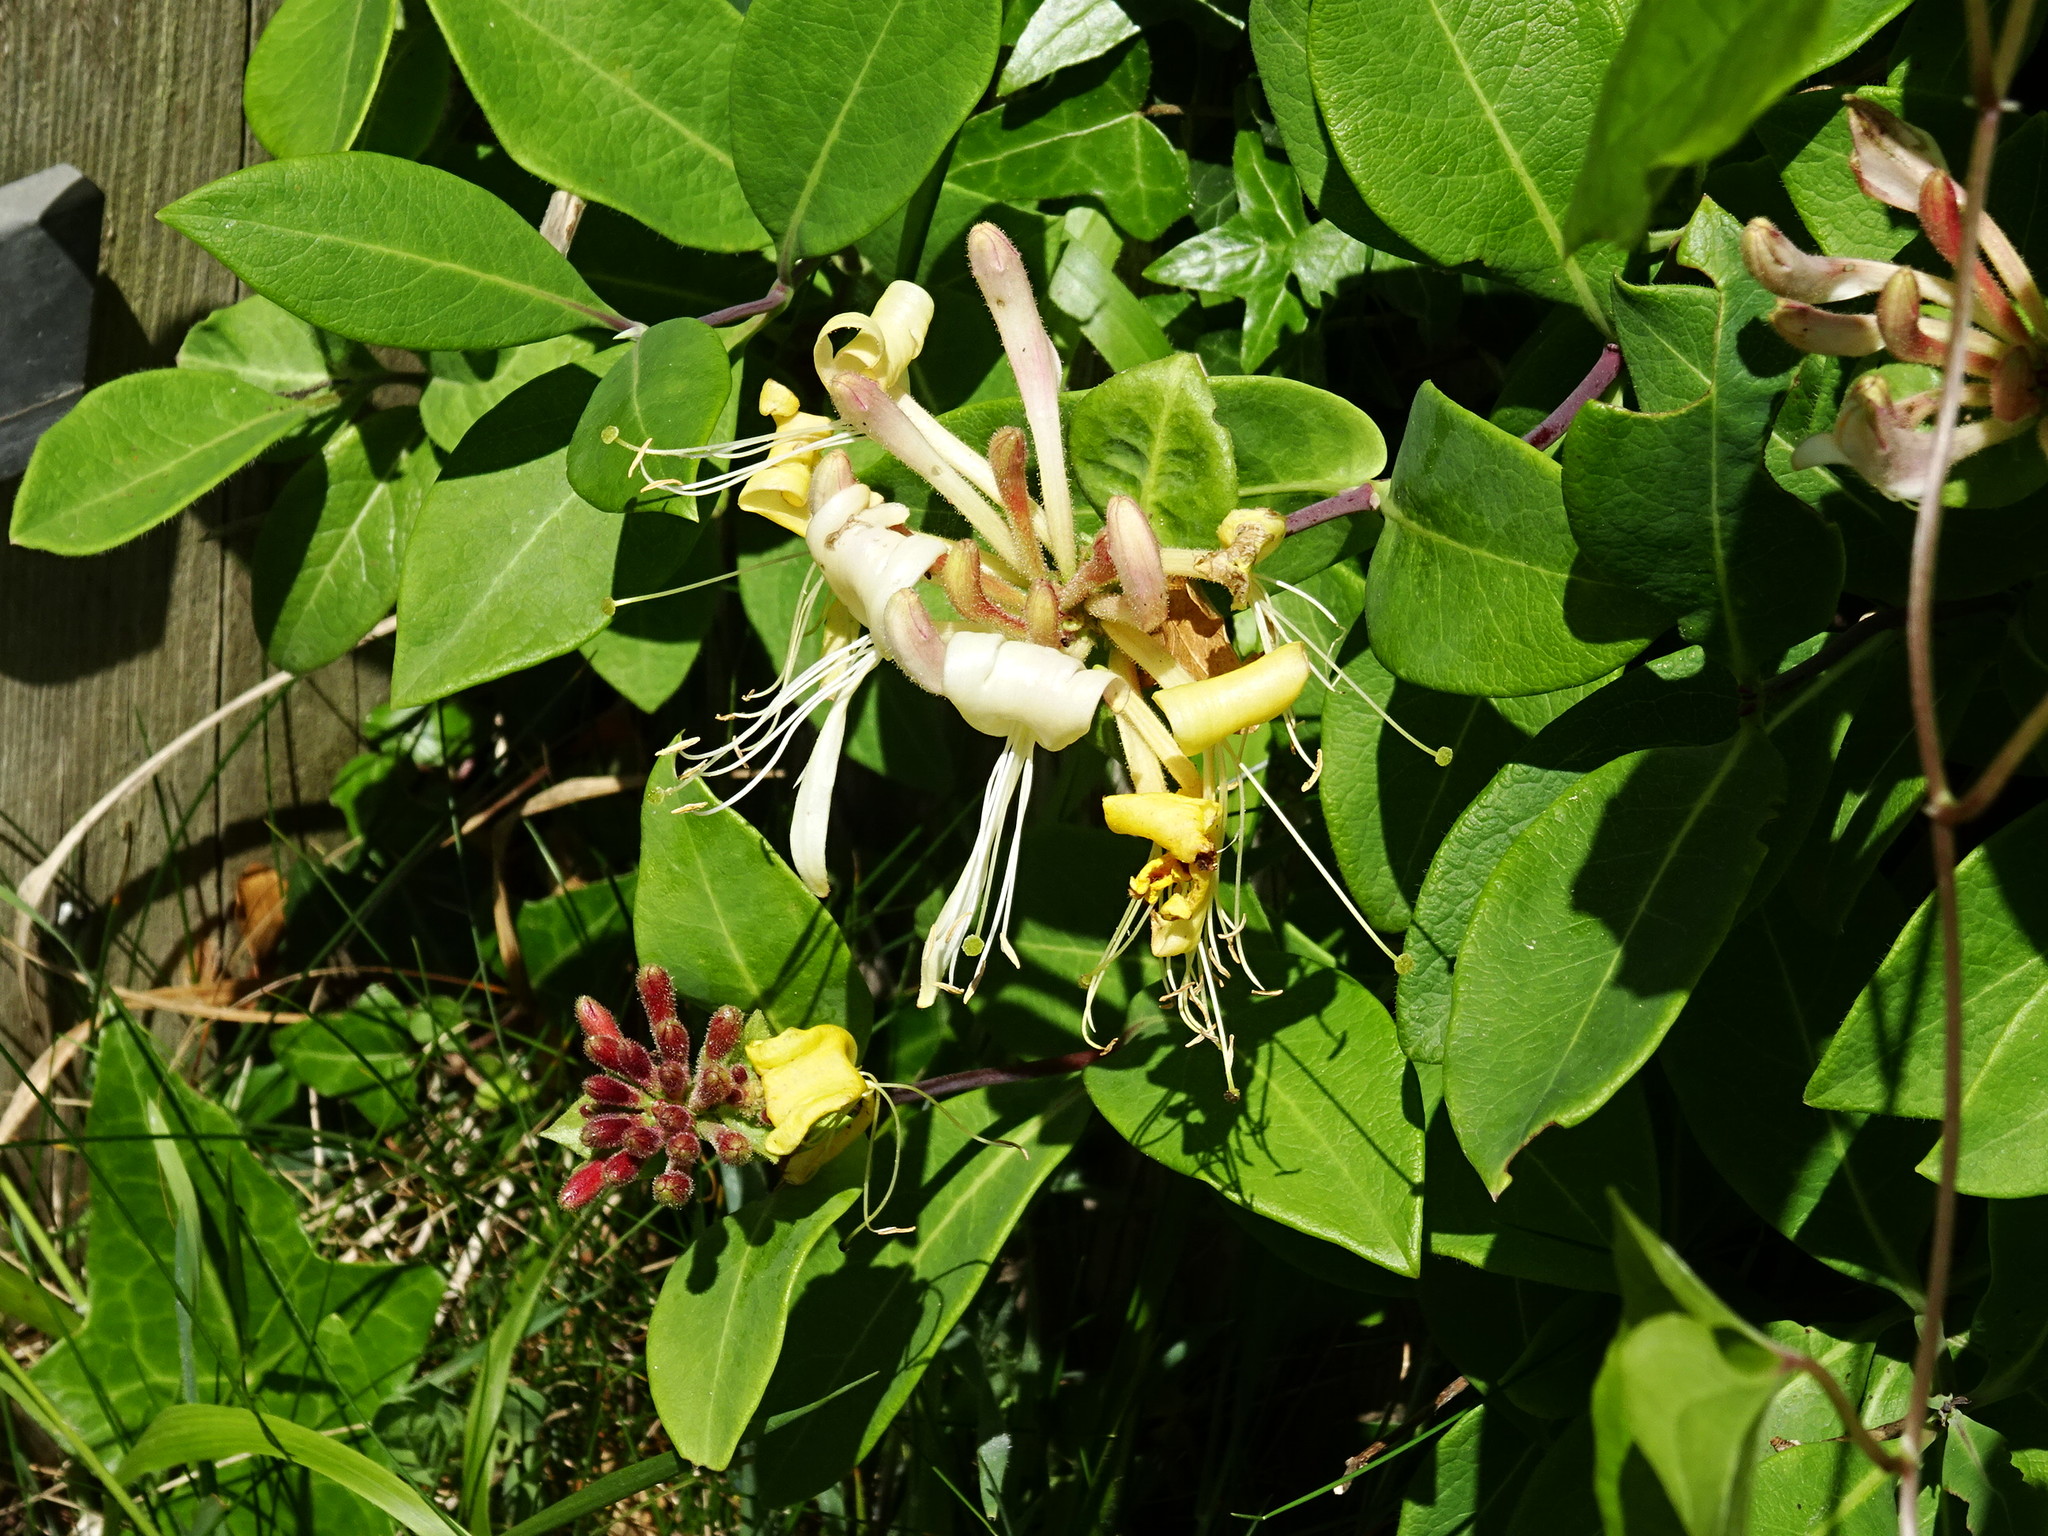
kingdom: Plantae
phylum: Tracheophyta
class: Magnoliopsida
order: Dipsacales
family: Caprifoliaceae
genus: Lonicera
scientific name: Lonicera periclymenum
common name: European honeysuckle
